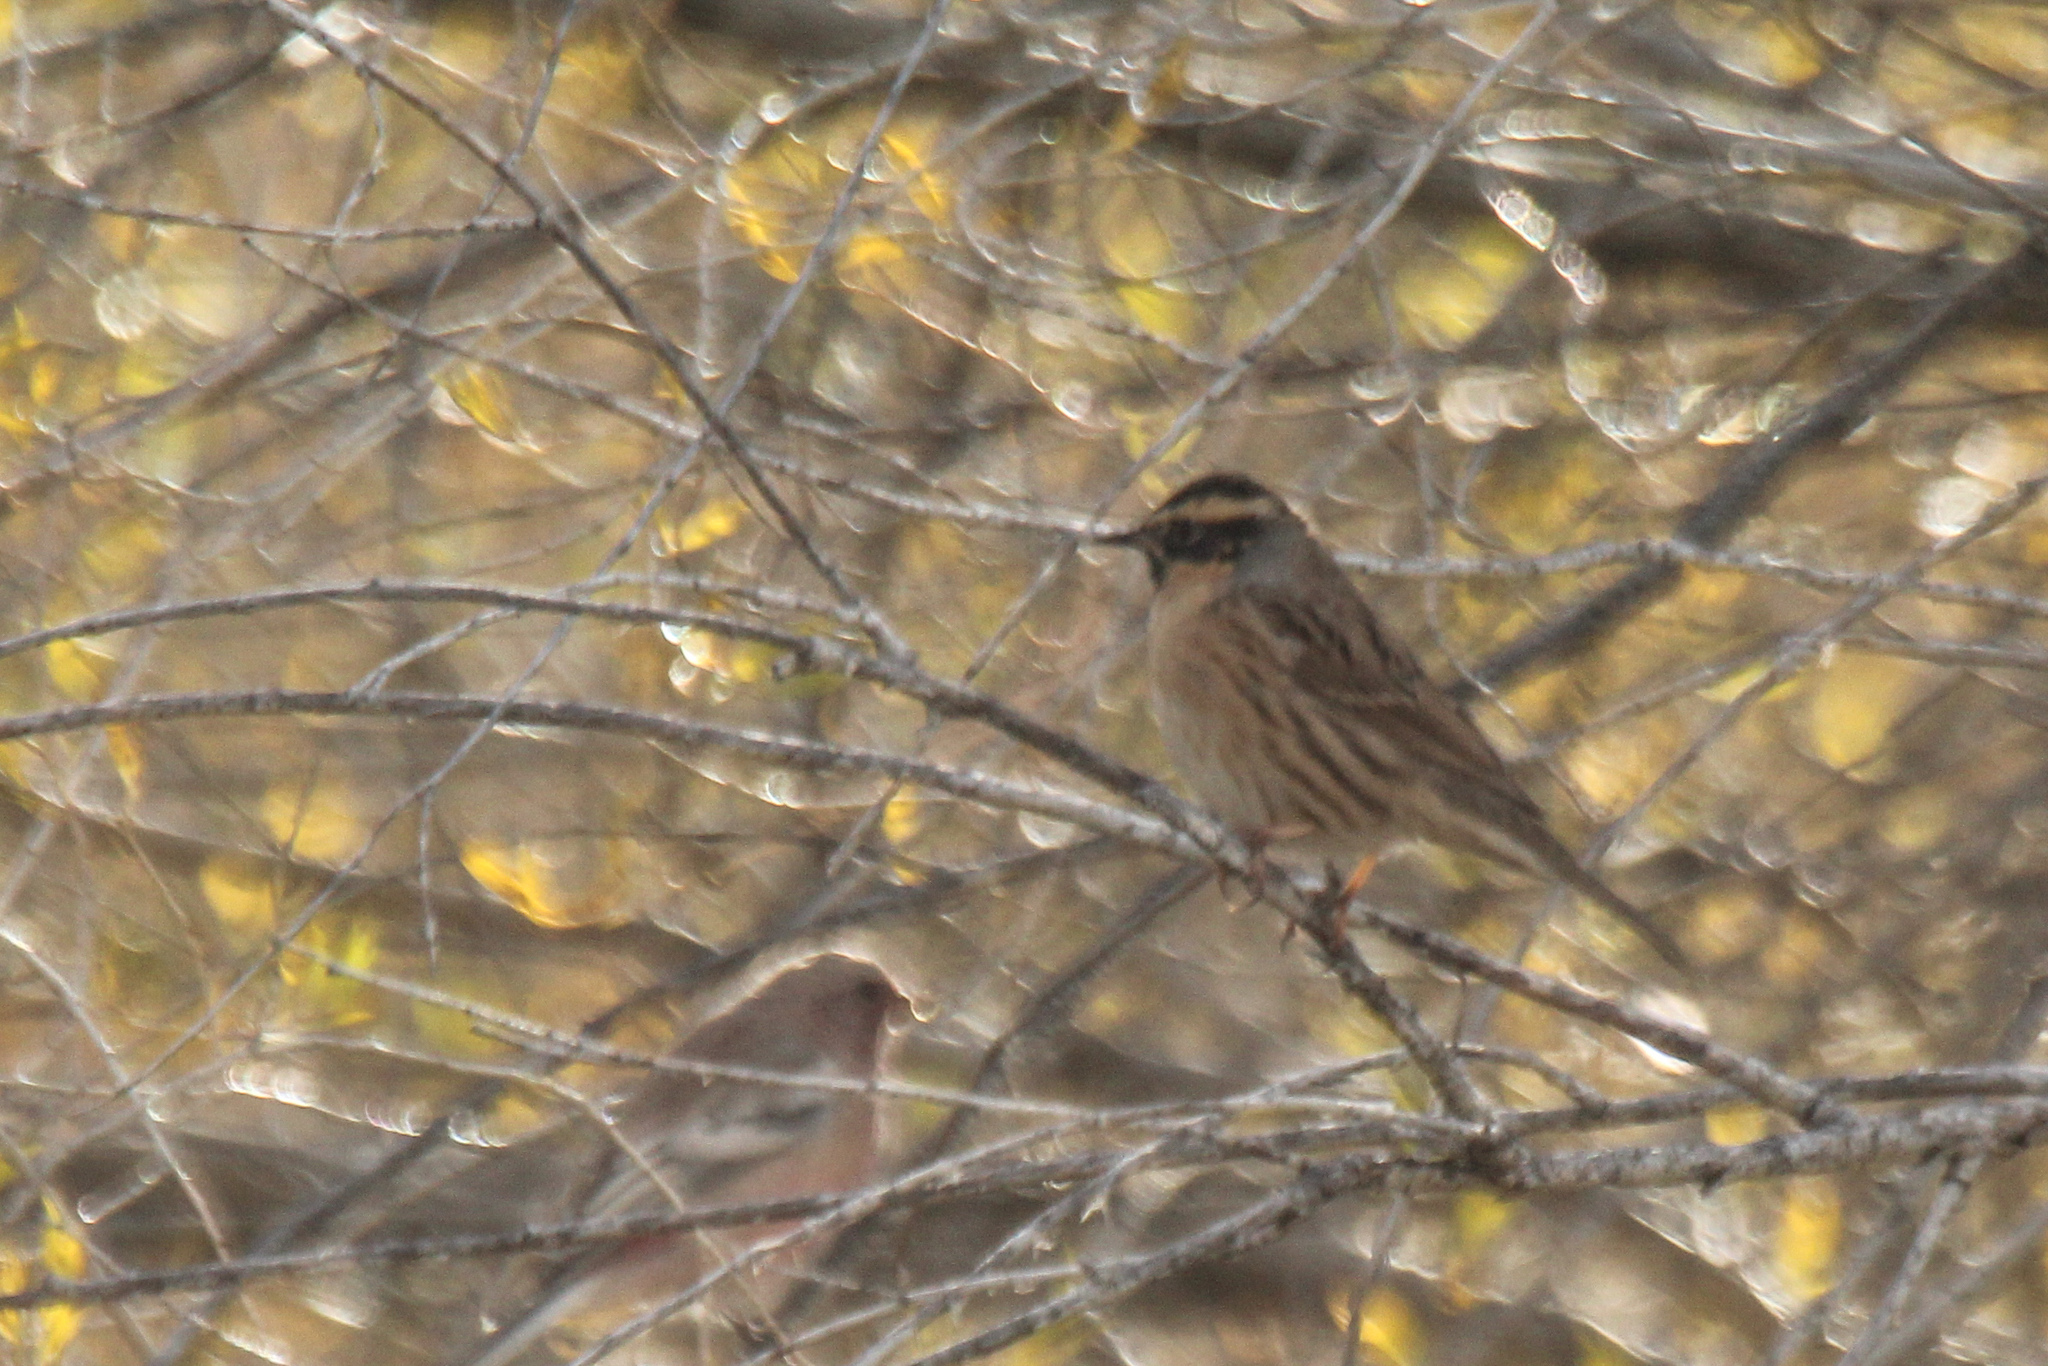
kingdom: Animalia
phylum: Chordata
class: Aves
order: Passeriformes
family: Prunellidae
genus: Prunella
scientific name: Prunella atrogularis
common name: Black-throated accentor
